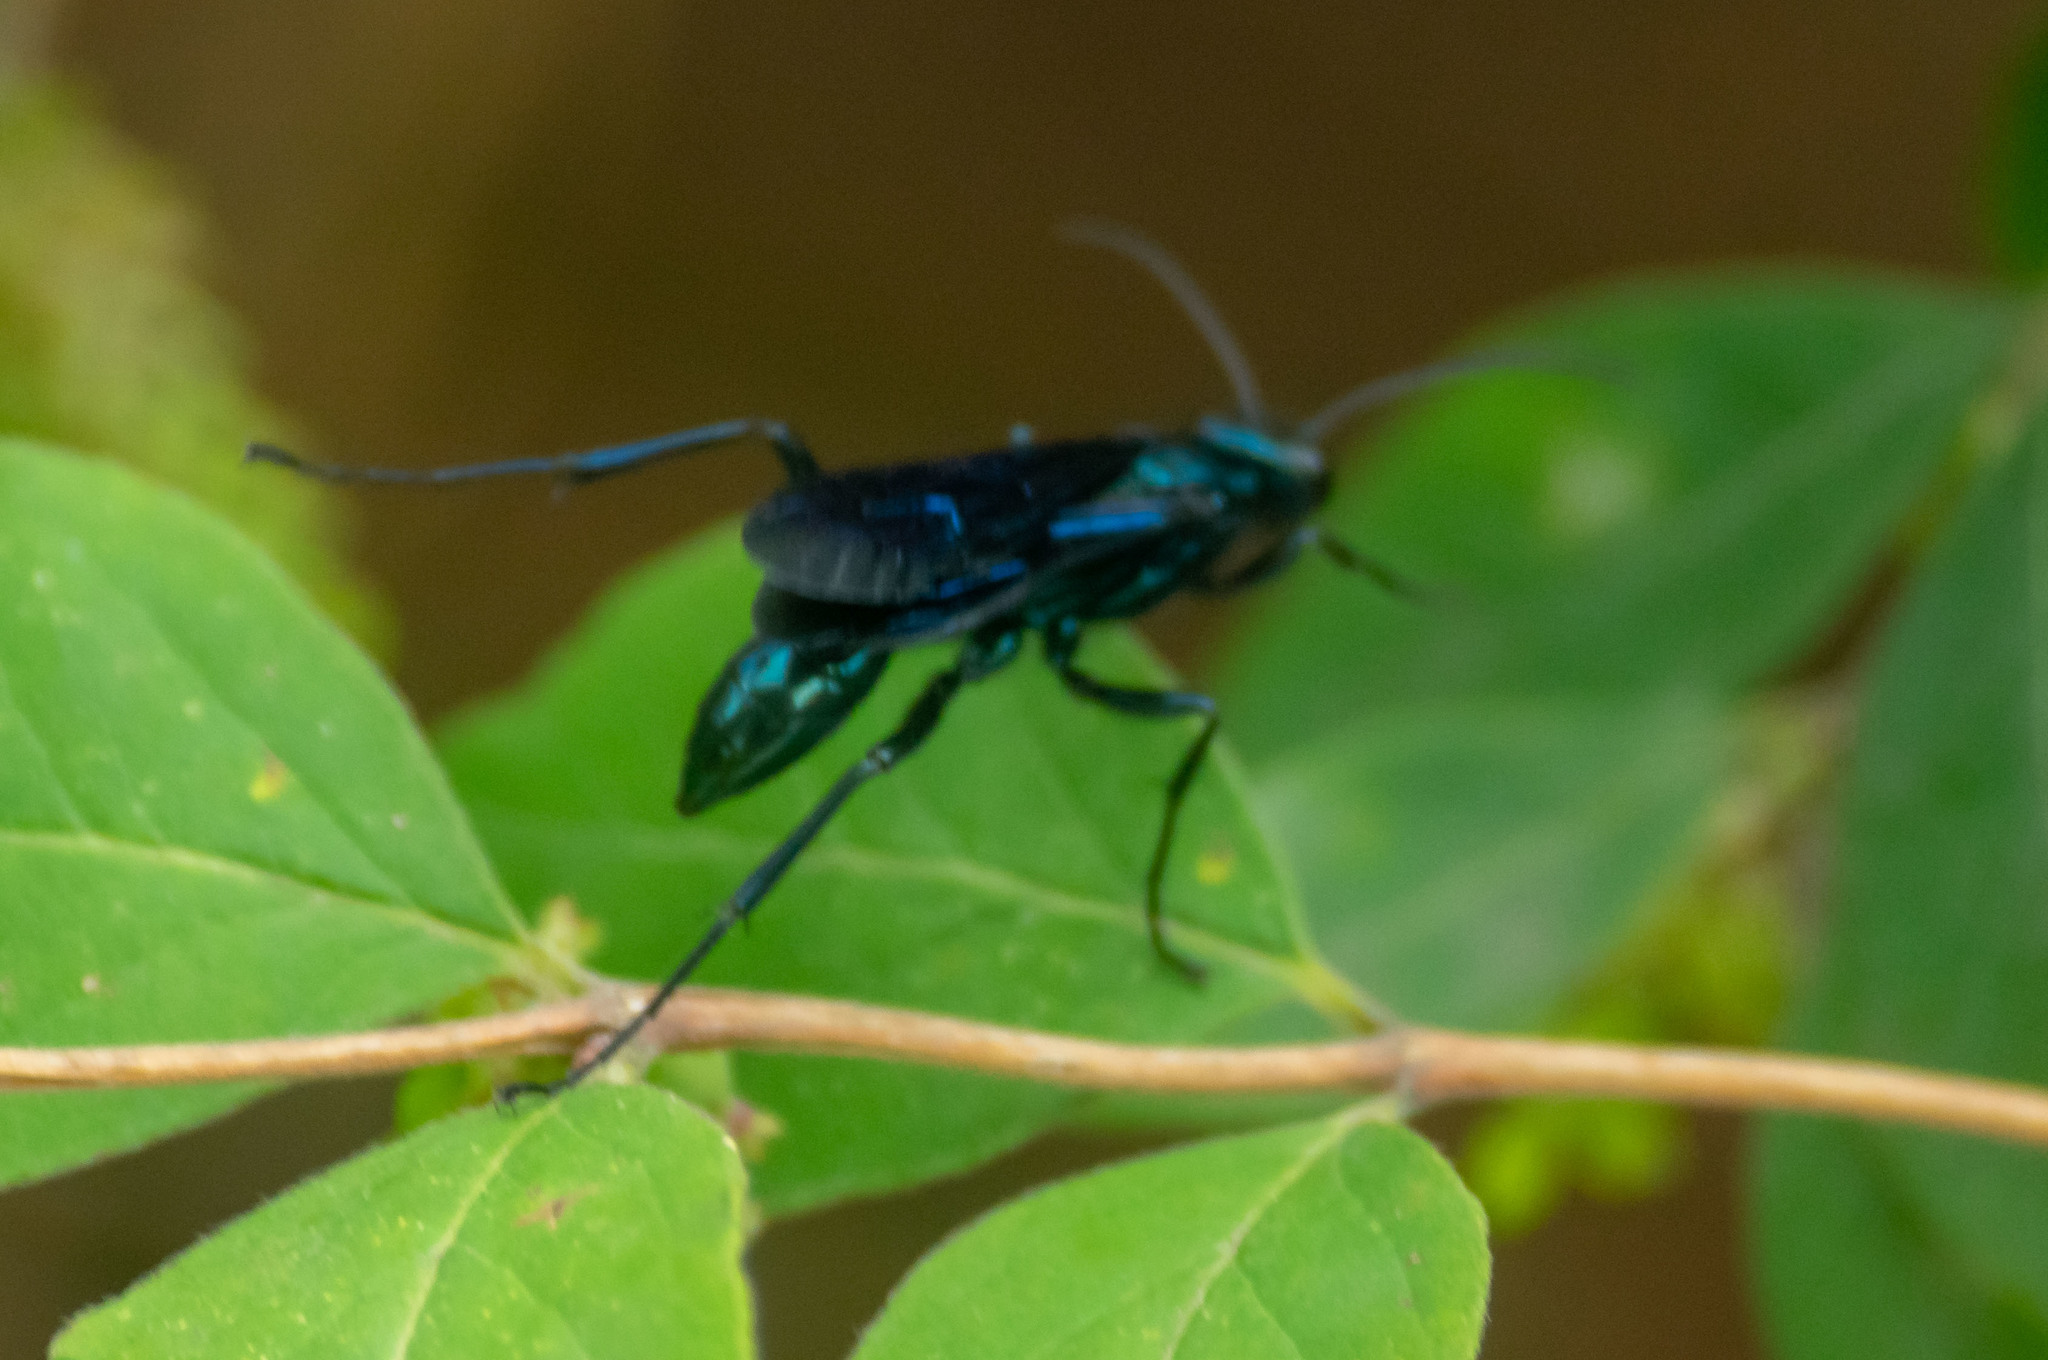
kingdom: Animalia
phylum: Arthropoda
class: Insecta
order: Hymenoptera
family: Sphecidae
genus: Chalybion
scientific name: Chalybion californicum
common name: Mud dauber
